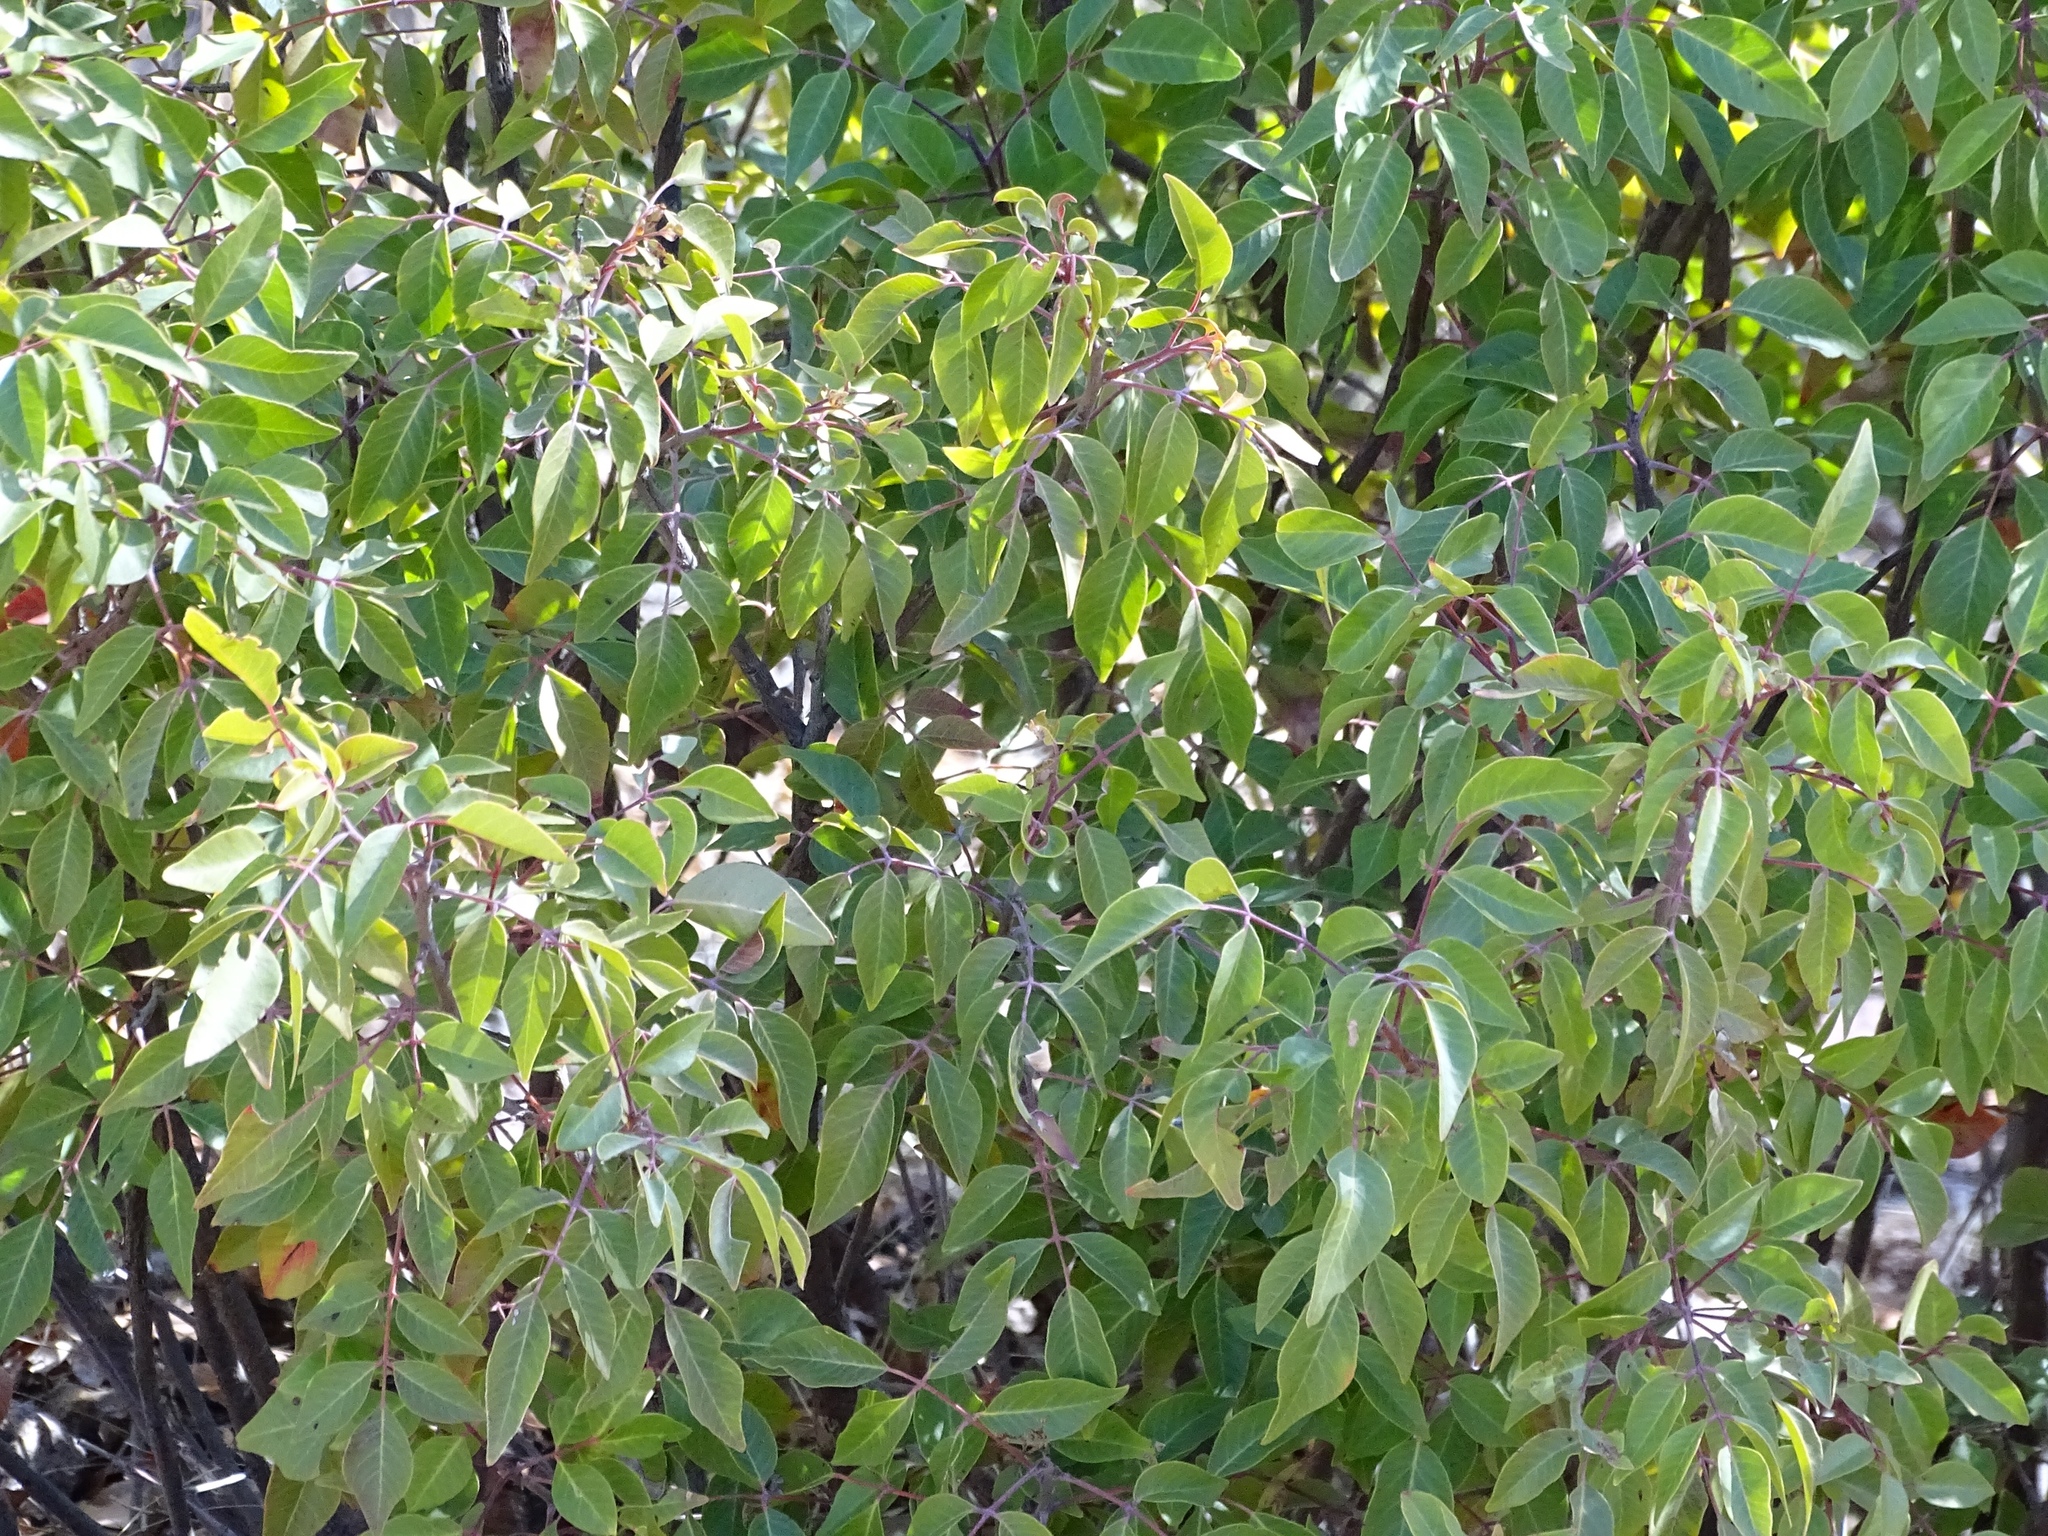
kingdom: Plantae
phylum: Tracheophyta
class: Magnoliopsida
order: Sapindales
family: Anacardiaceae
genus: Rhus
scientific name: Rhus virens
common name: Evergreen sumac
